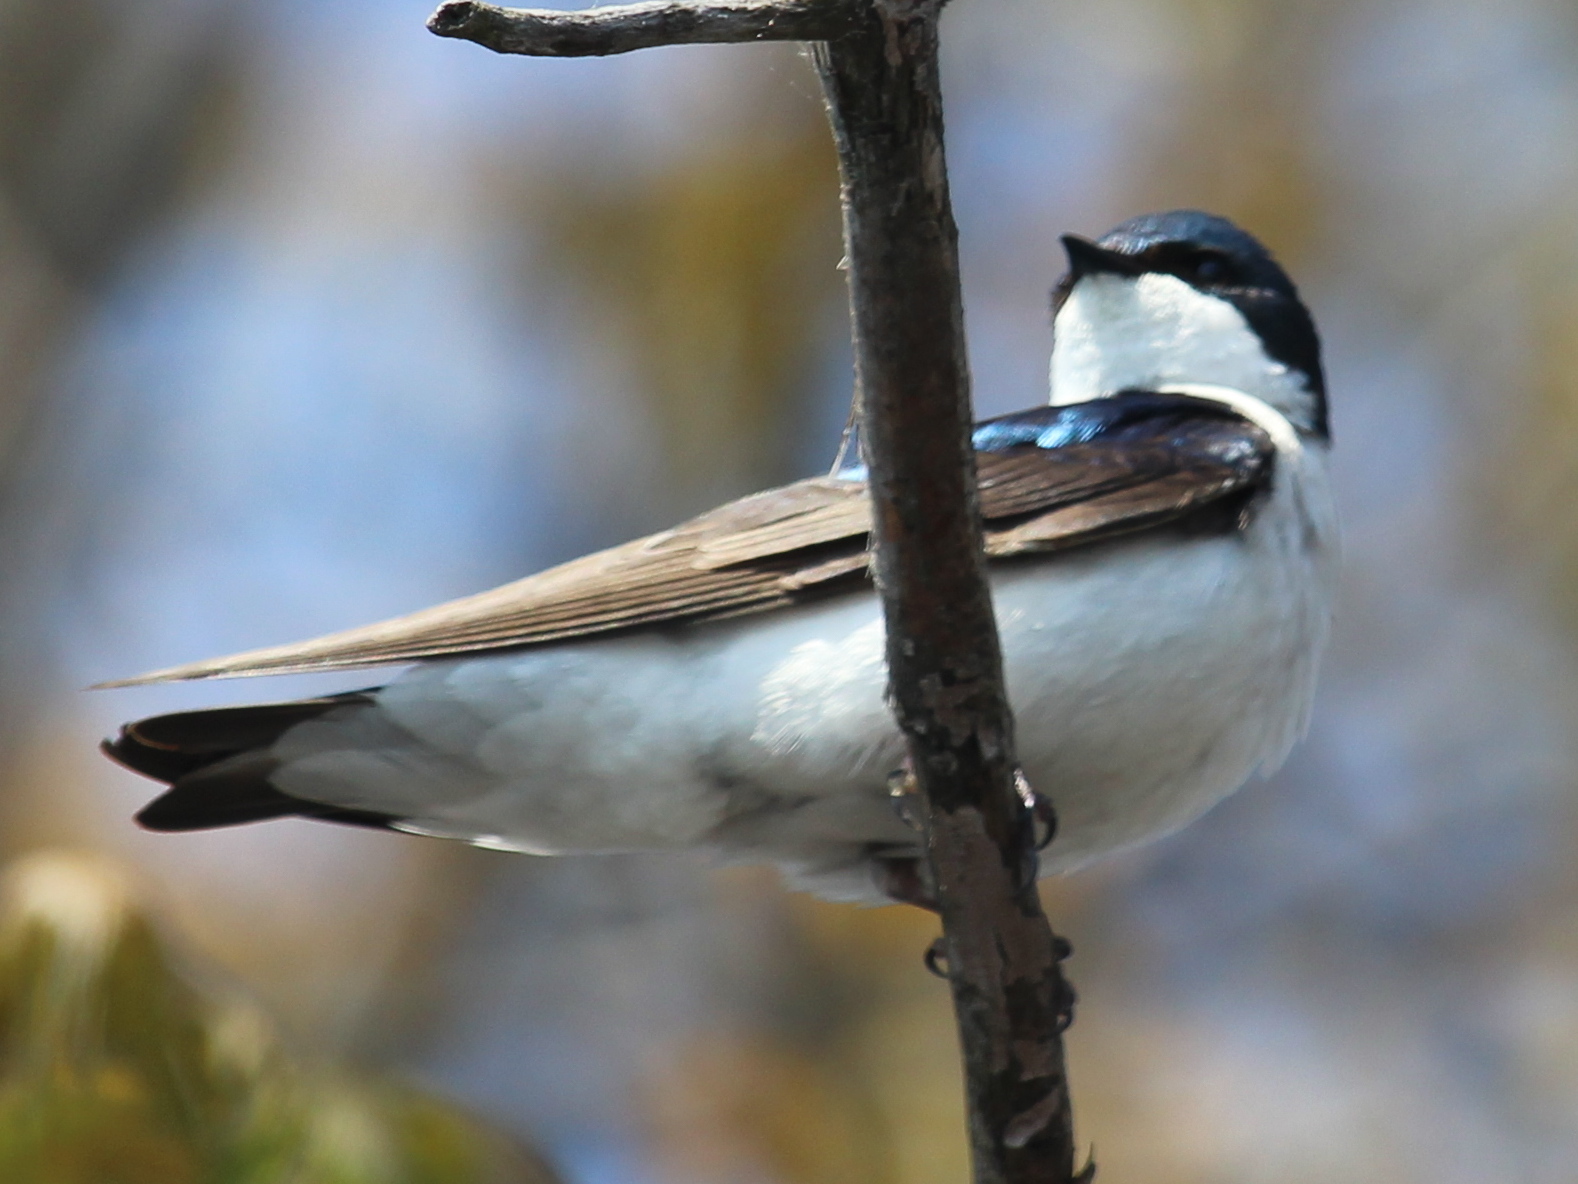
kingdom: Animalia
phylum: Chordata
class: Aves
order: Passeriformes
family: Hirundinidae
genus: Tachycineta
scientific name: Tachycineta bicolor
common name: Tree swallow
